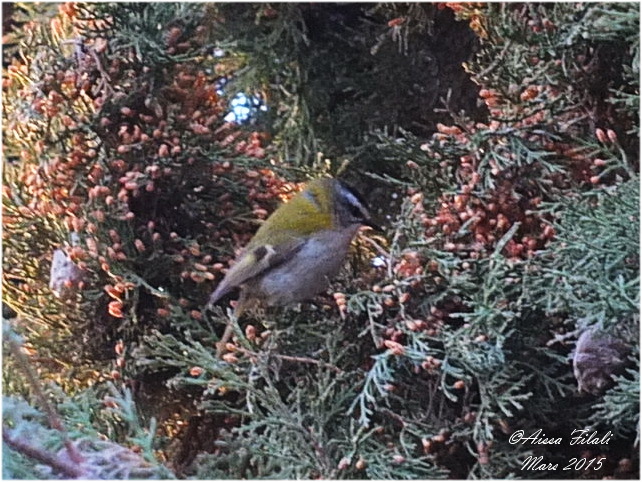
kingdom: Animalia
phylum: Chordata
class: Aves
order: Passeriformes
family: Regulidae
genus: Regulus
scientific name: Regulus ignicapilla
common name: Firecrest
